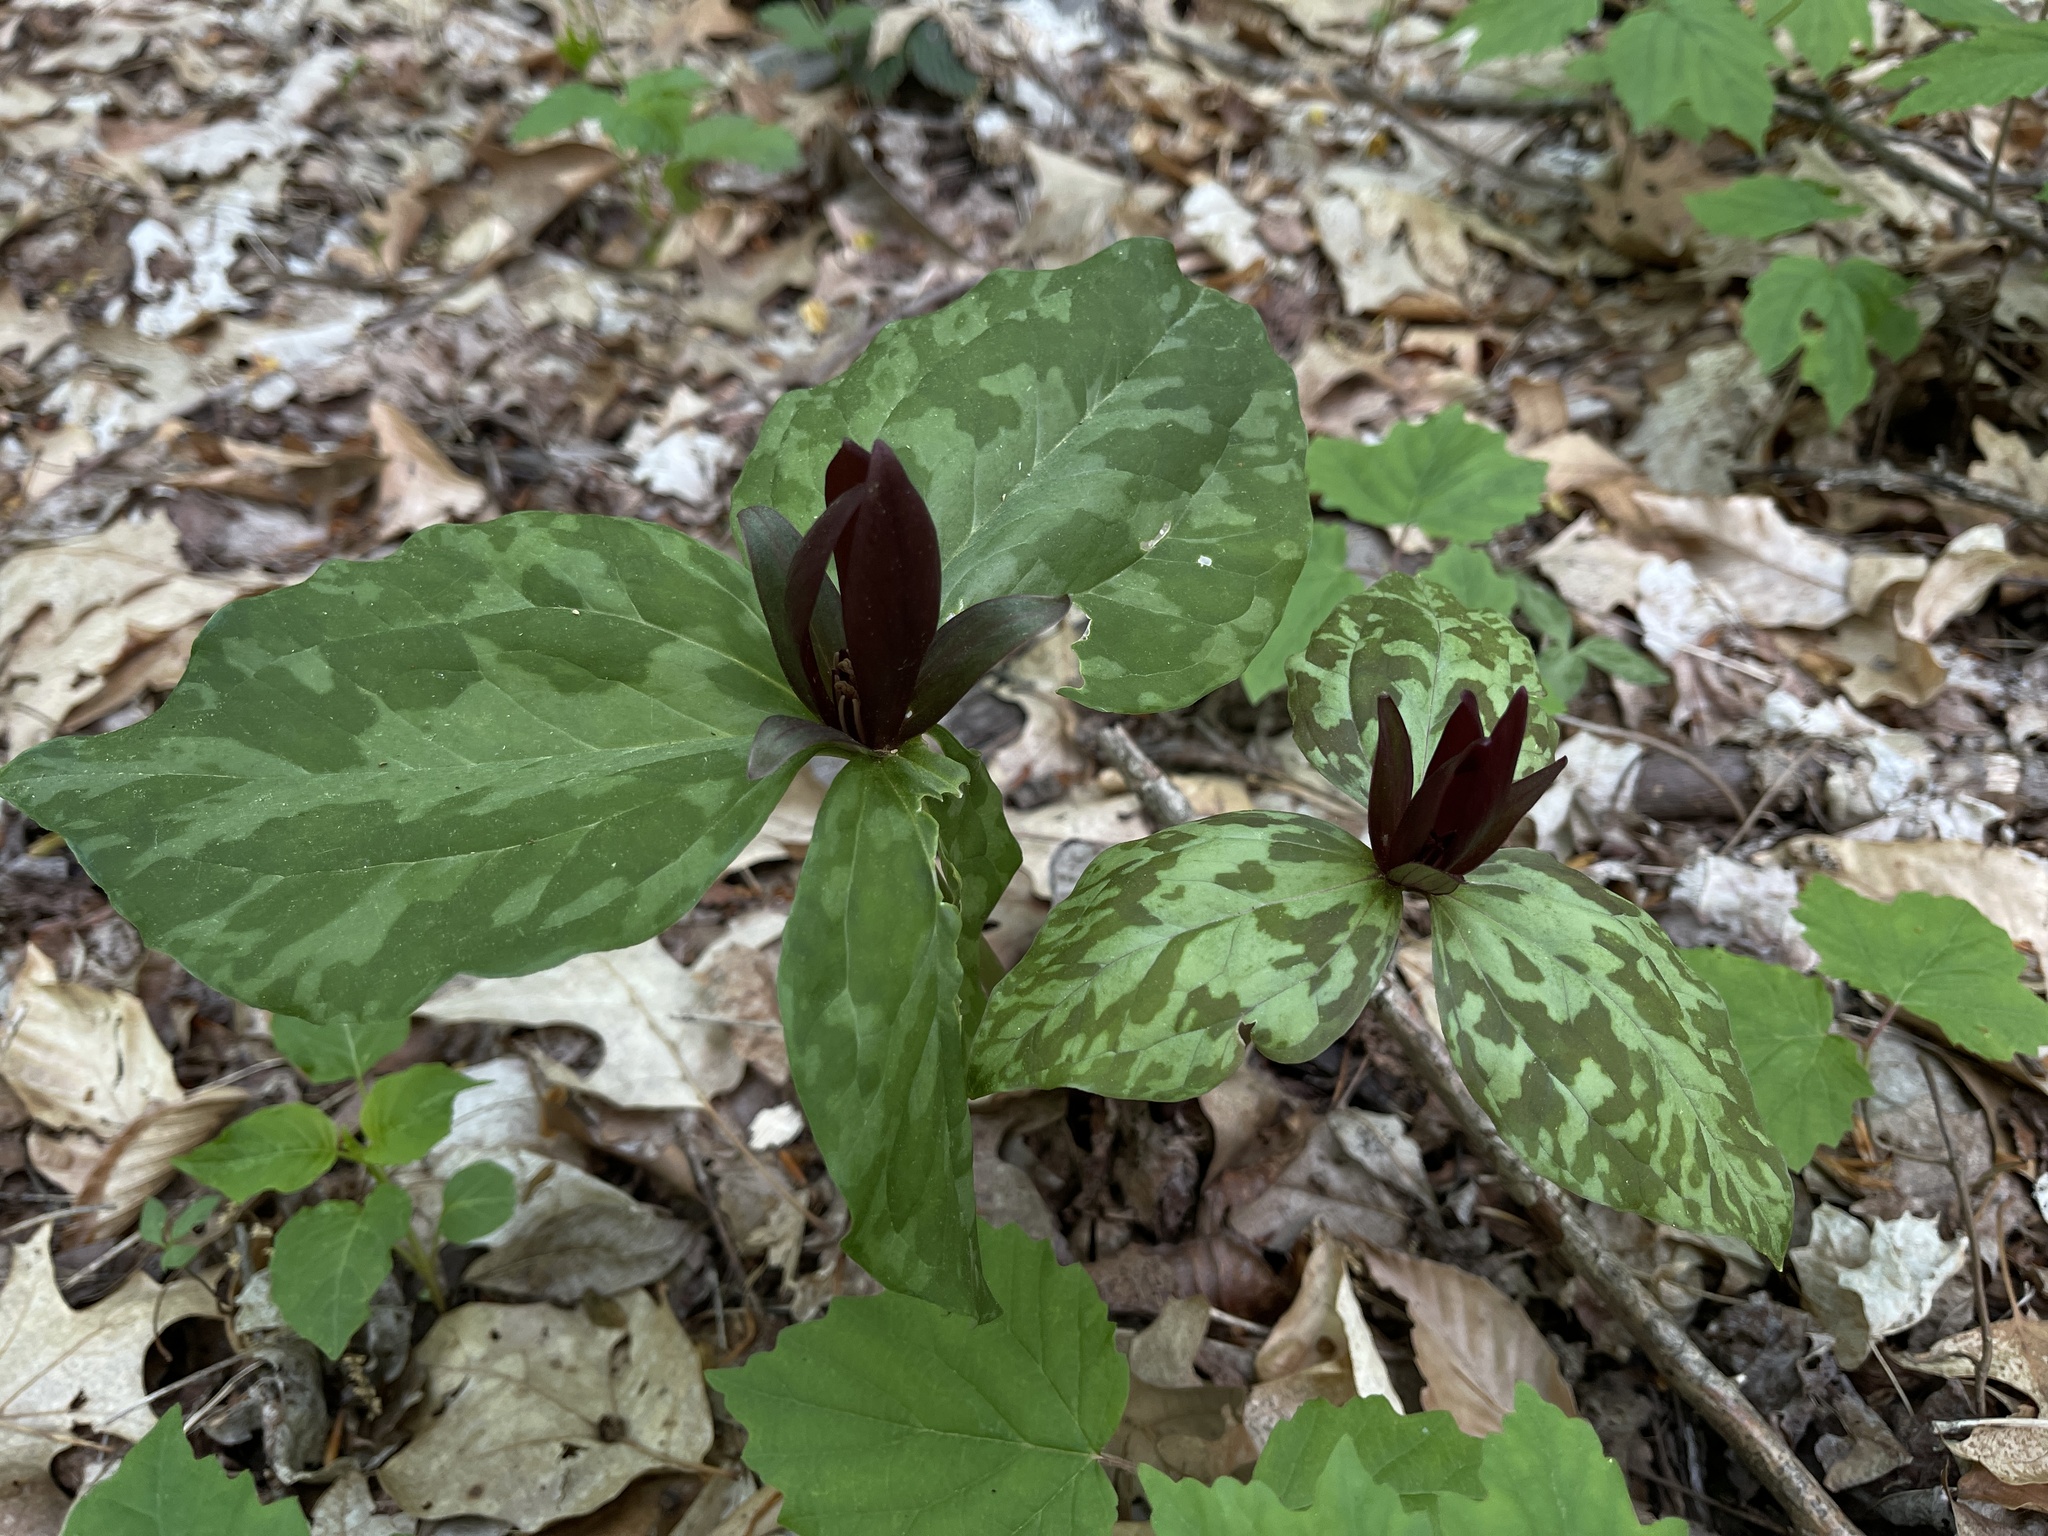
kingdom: Plantae
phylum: Tracheophyta
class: Liliopsida
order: Liliales
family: Melanthiaceae
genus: Trillium
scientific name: Trillium cuneatum
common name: Cuneate trillium
